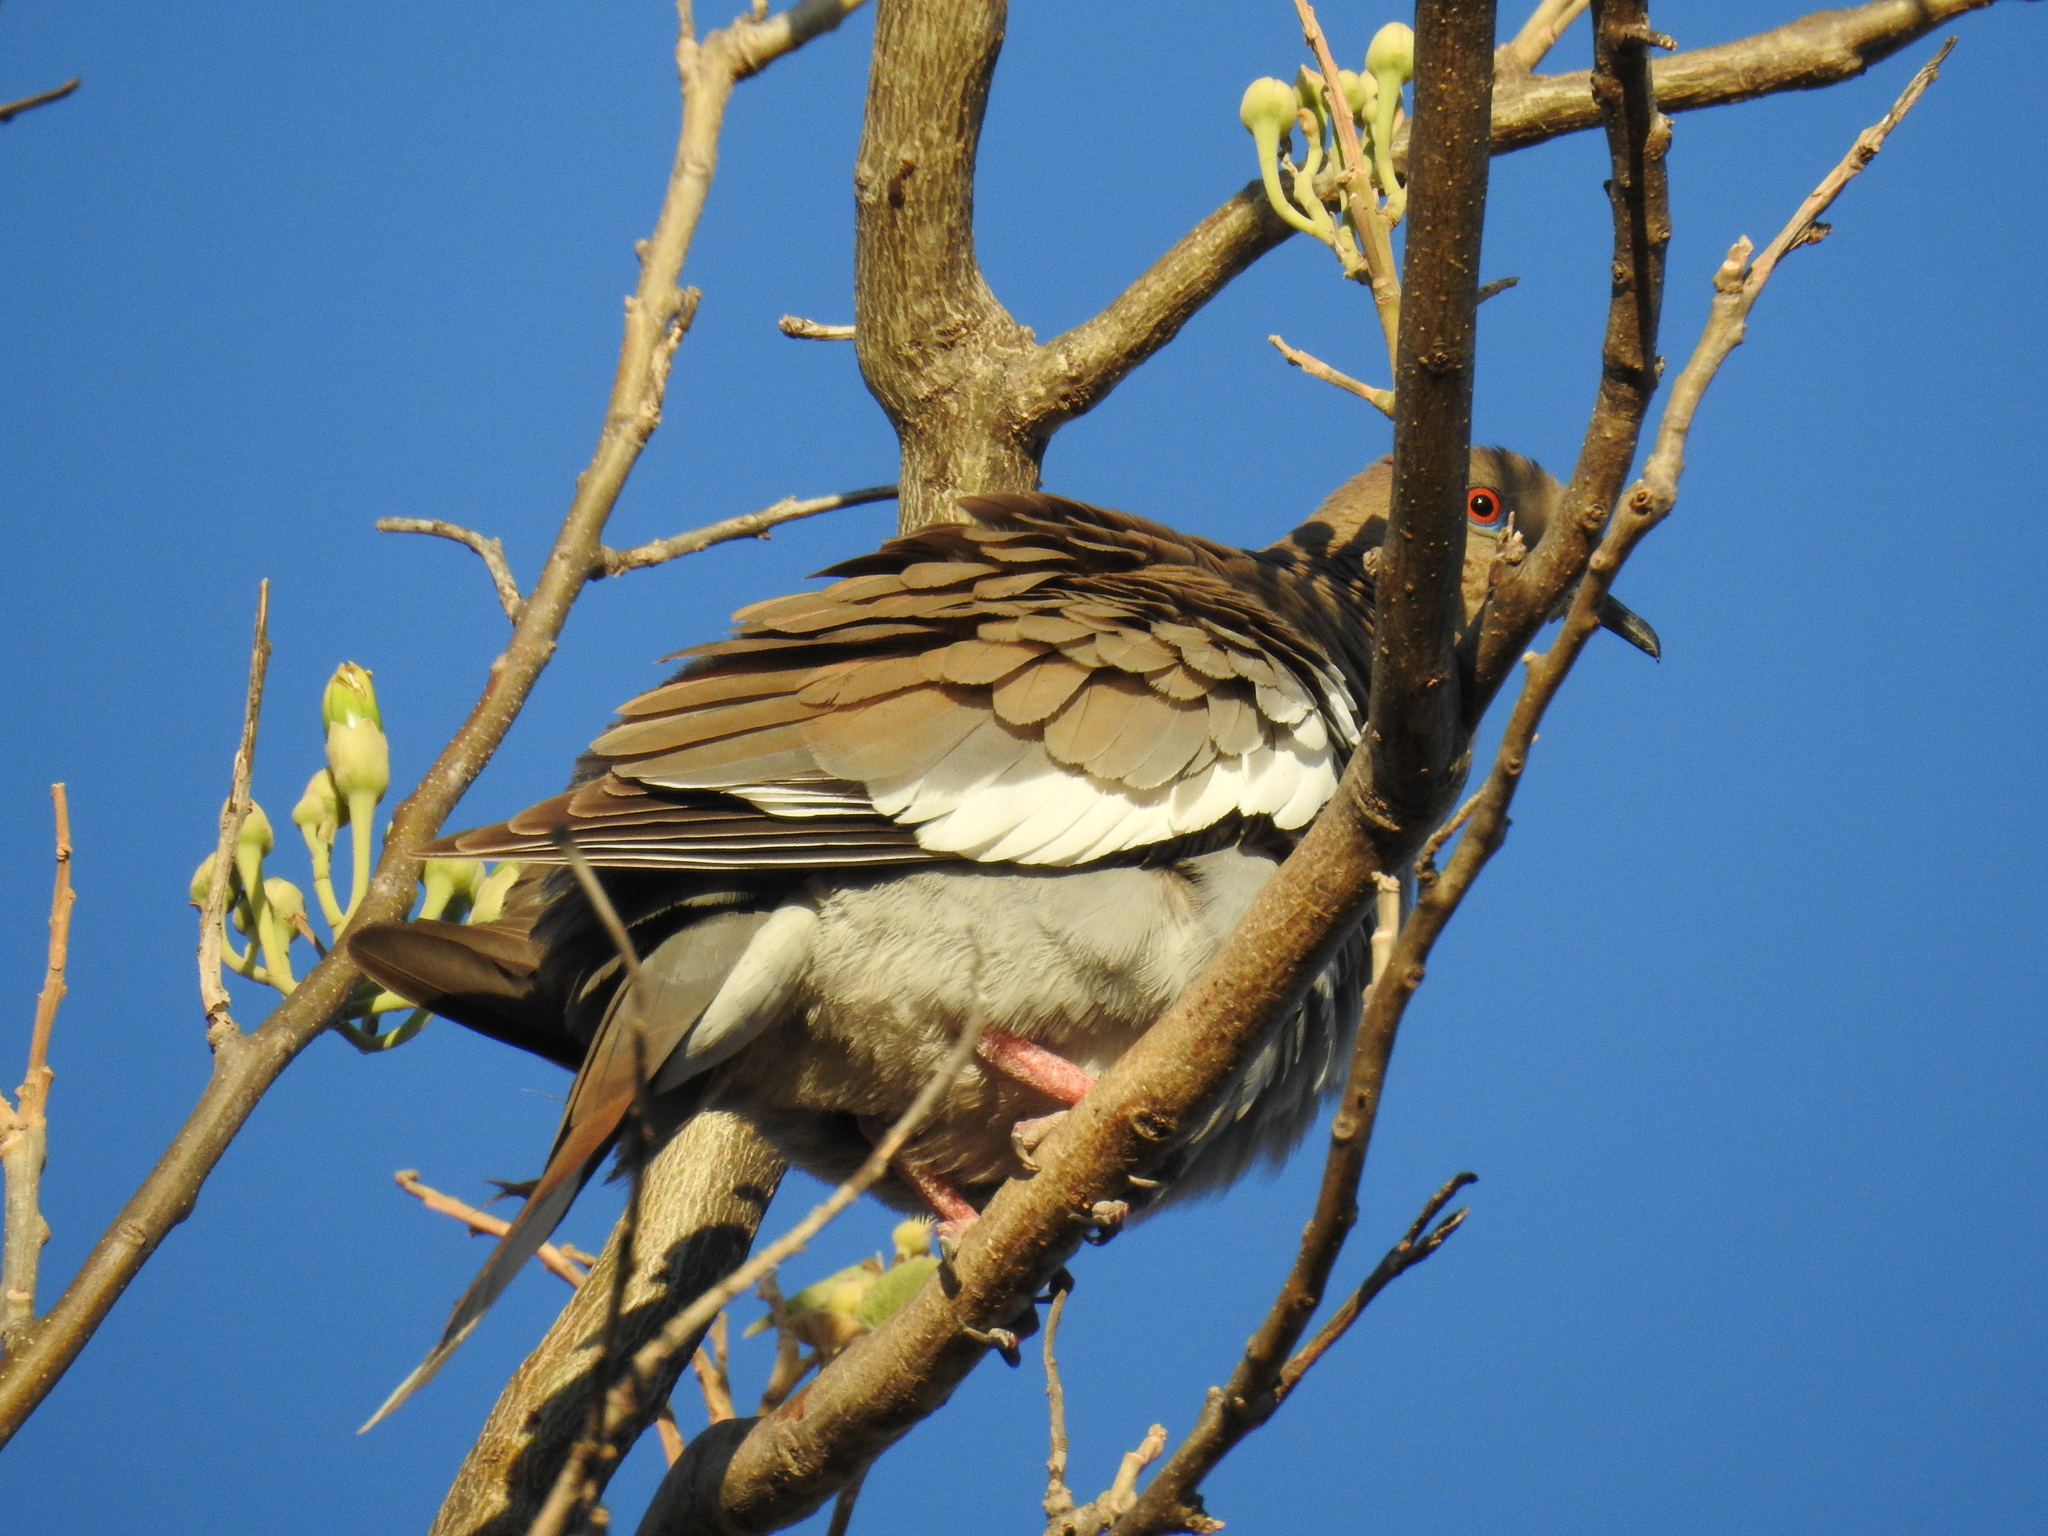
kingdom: Animalia
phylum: Chordata
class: Aves
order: Columbiformes
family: Columbidae
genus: Zenaida
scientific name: Zenaida asiatica
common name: White-winged dove
